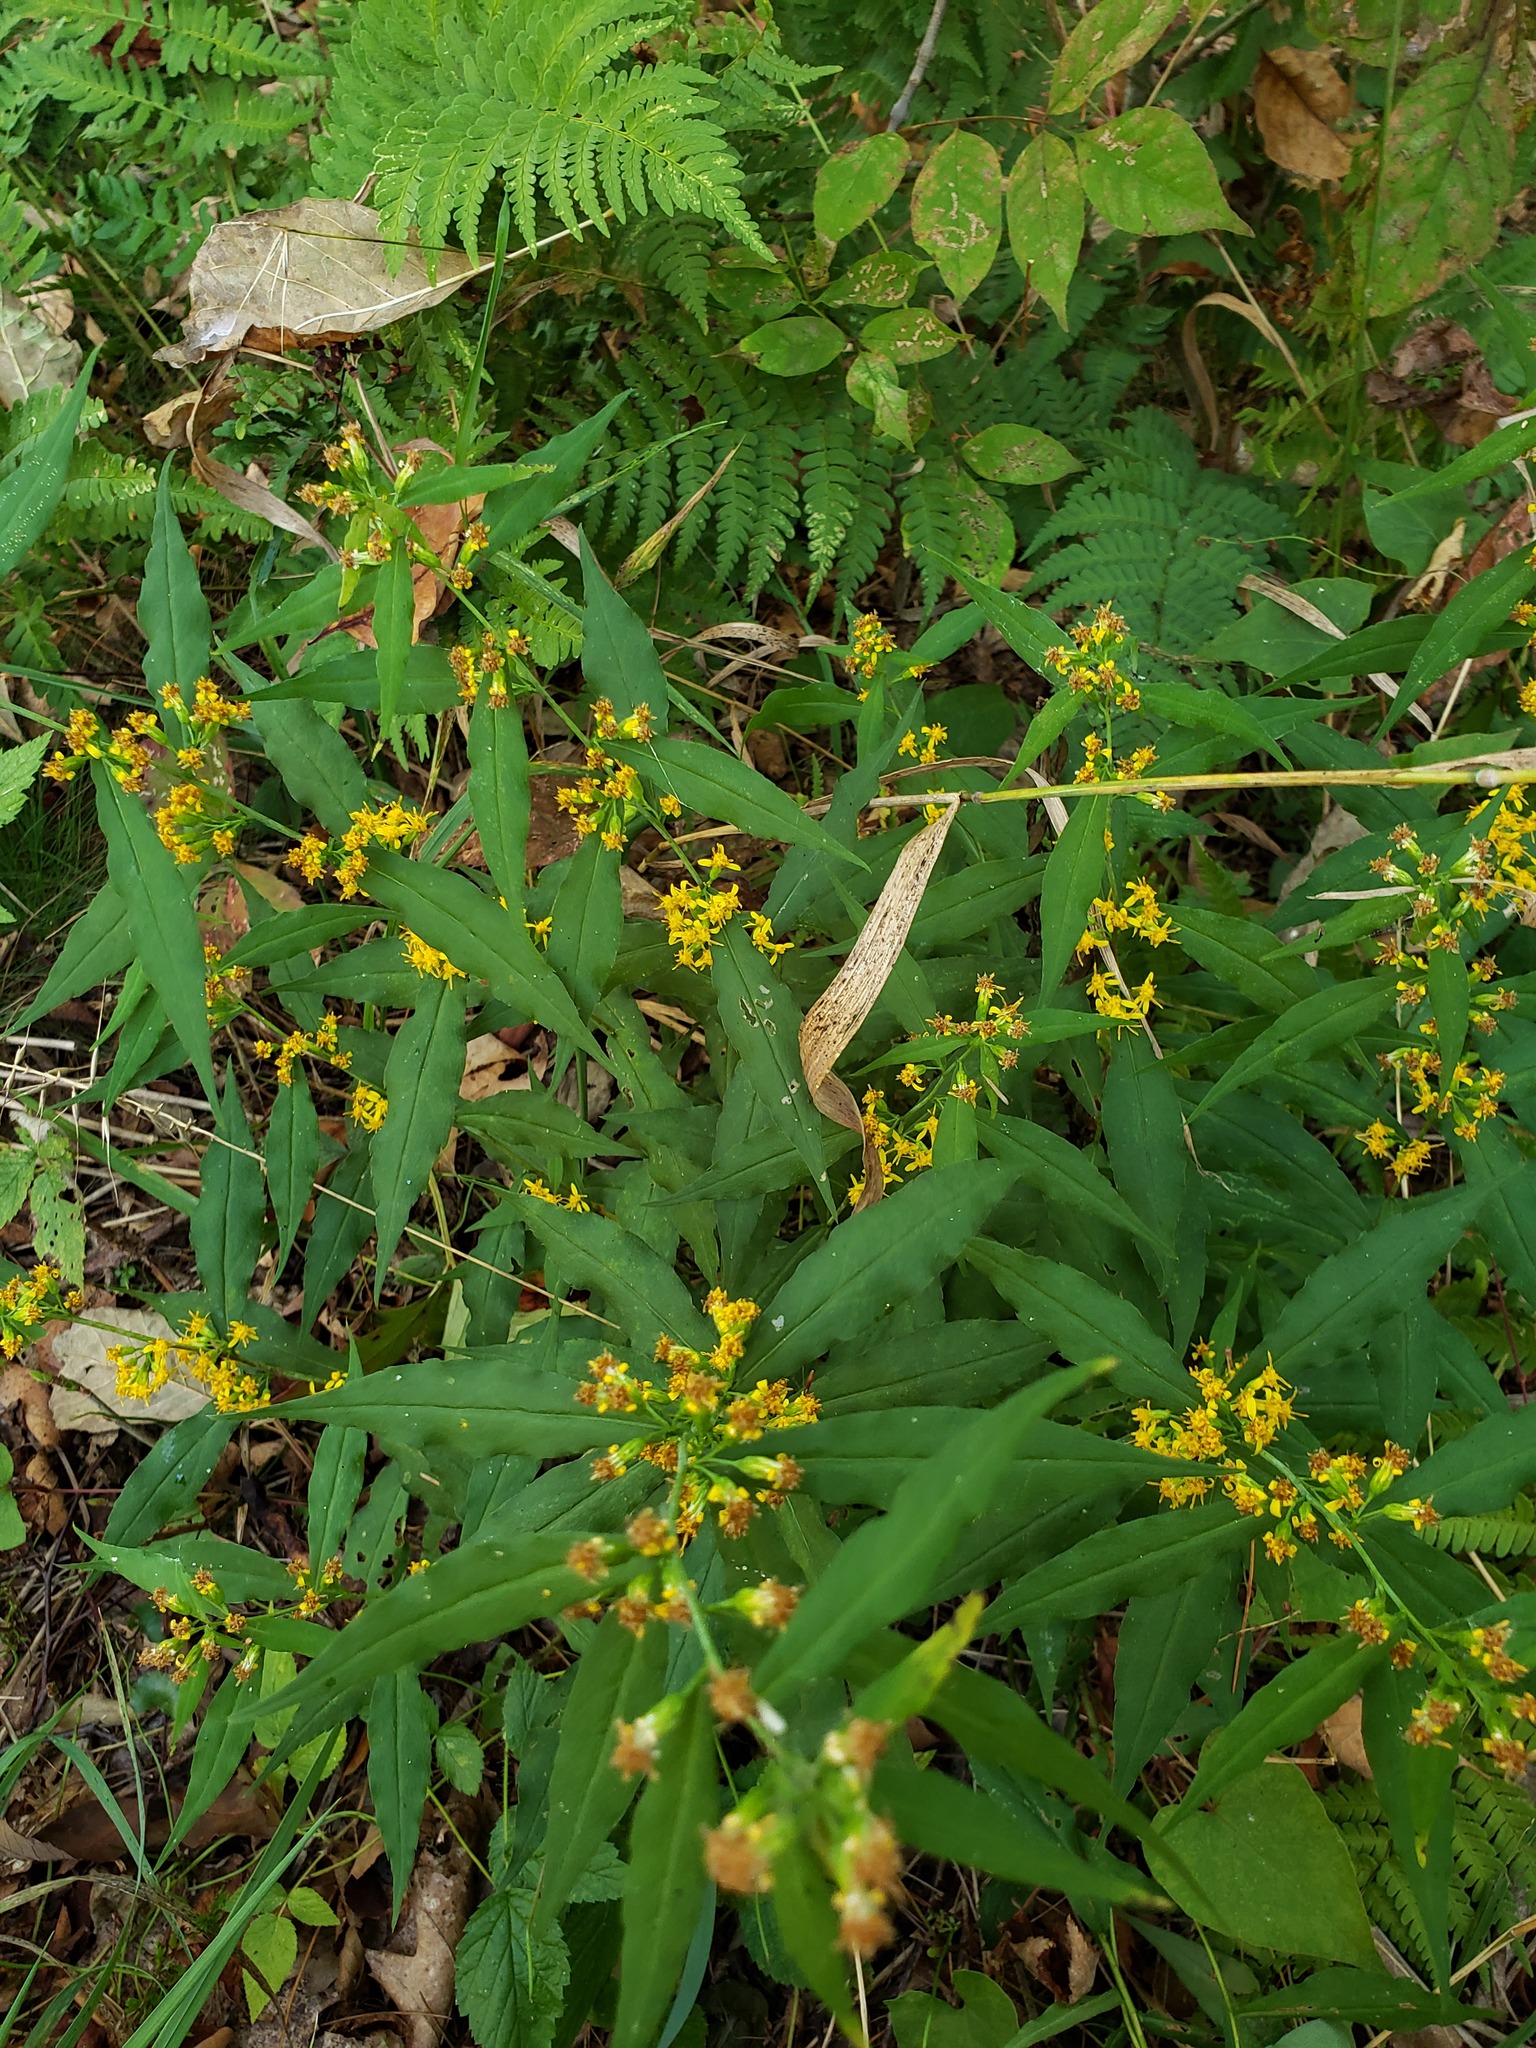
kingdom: Plantae
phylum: Tracheophyta
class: Magnoliopsida
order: Asterales
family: Asteraceae
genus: Solidago
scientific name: Solidago caesia
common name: Woodland goldenrod
